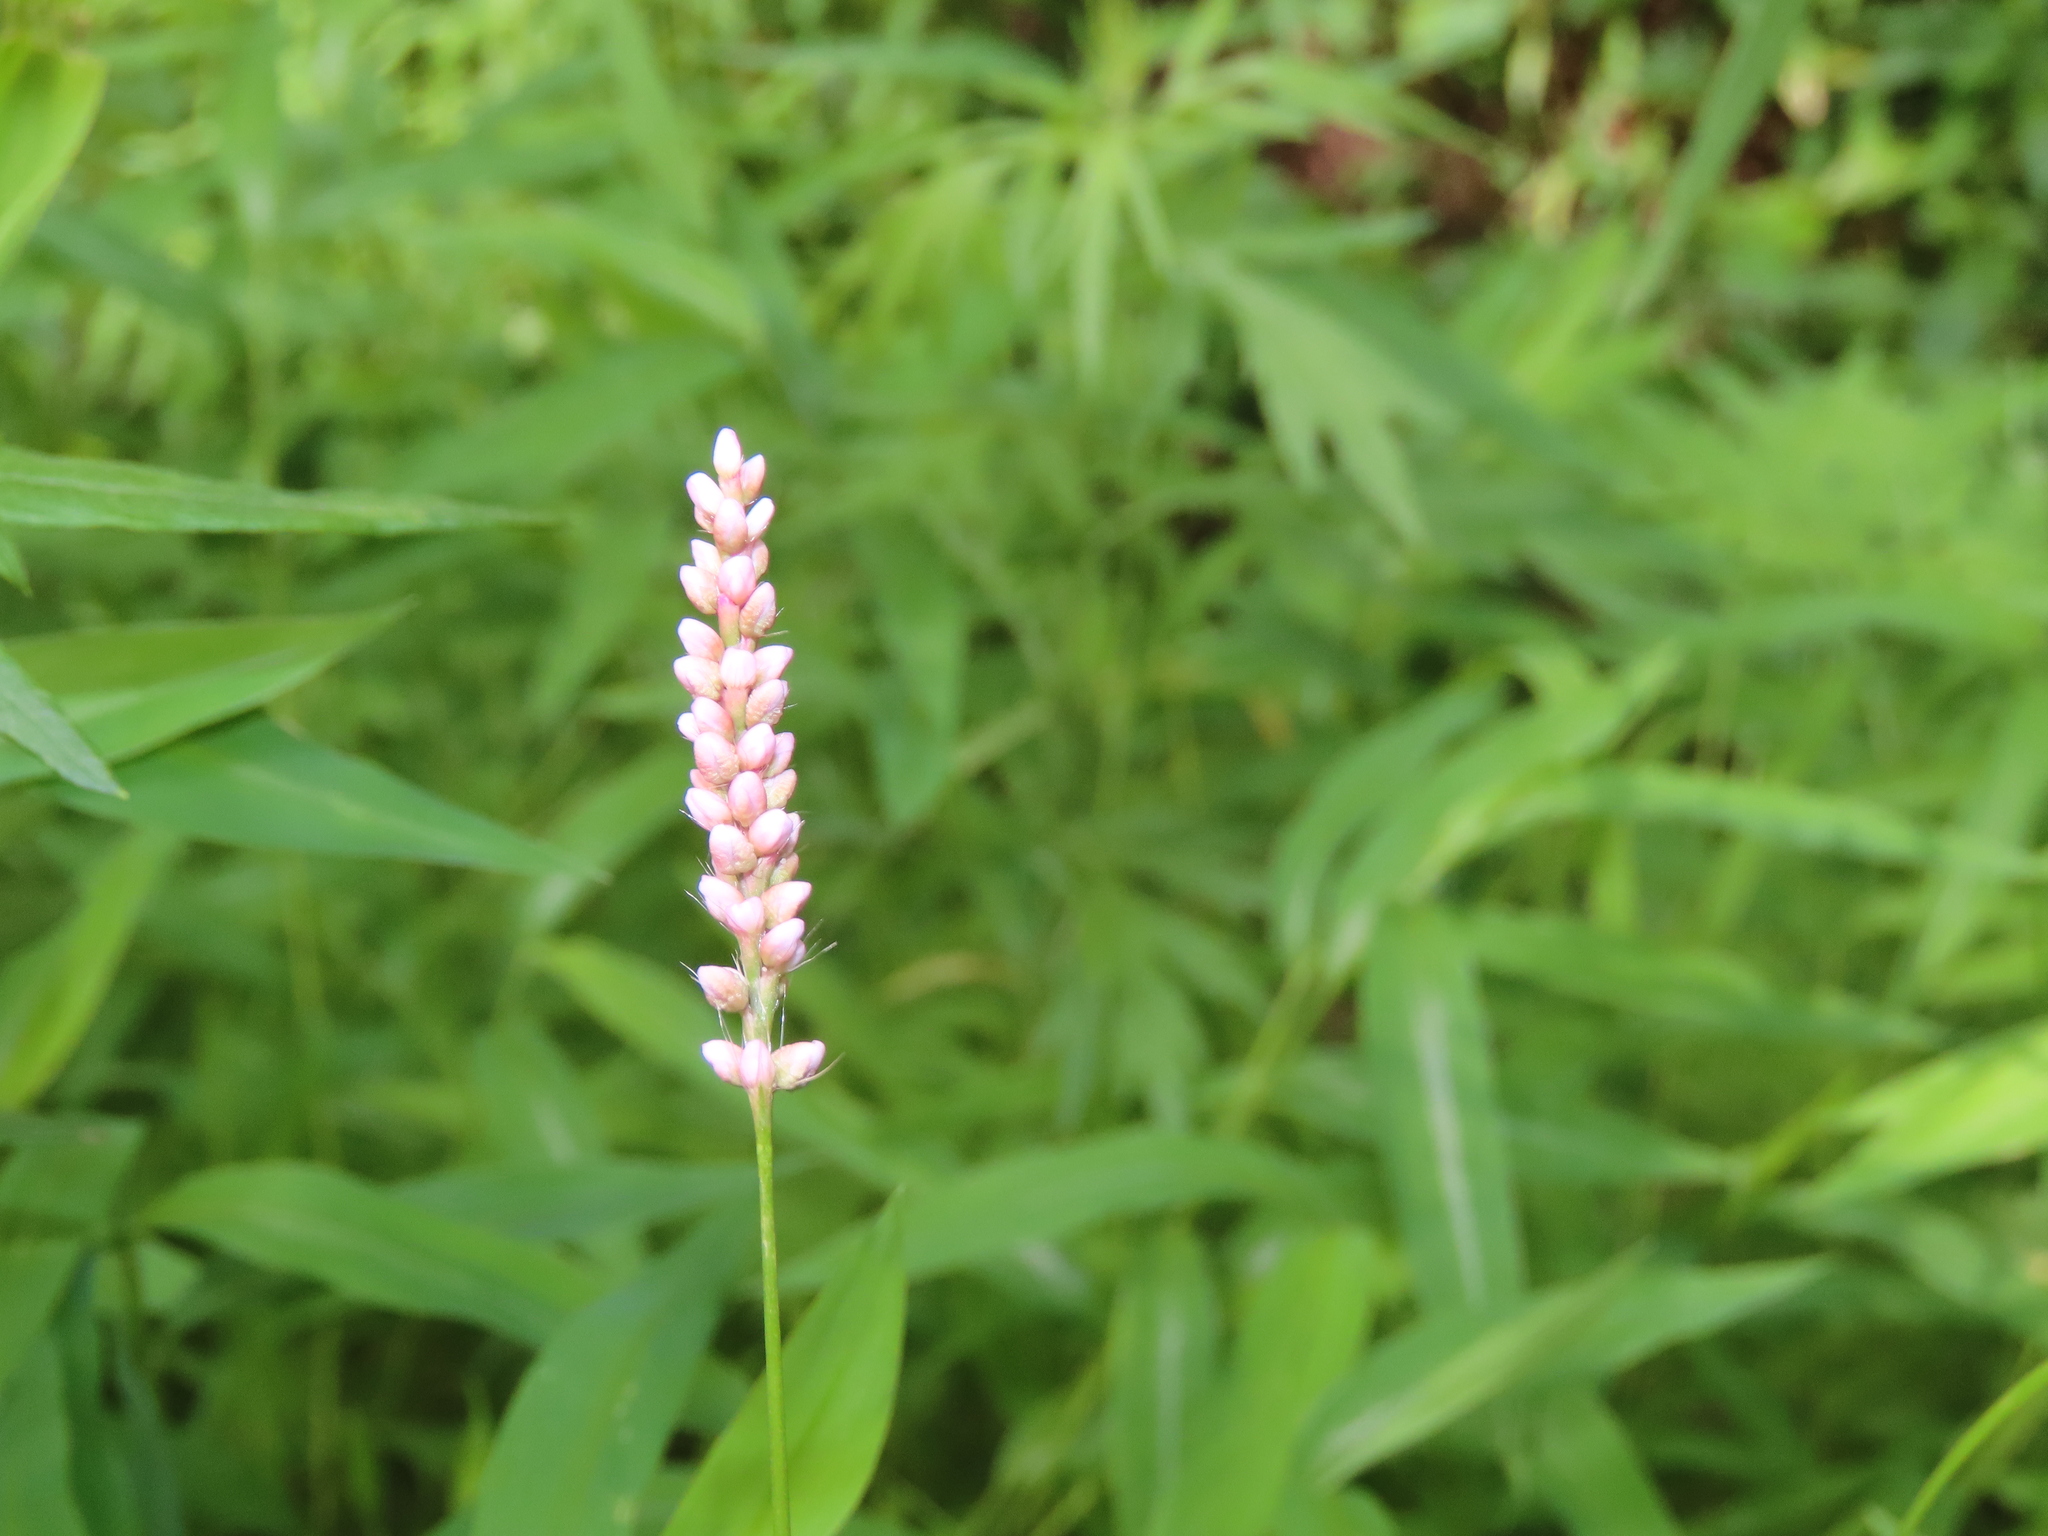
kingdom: Plantae
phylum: Tracheophyta
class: Magnoliopsida
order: Caryophyllales
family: Polygonaceae
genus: Persicaria
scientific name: Persicaria longiseta
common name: Bristly lady's-thumb
